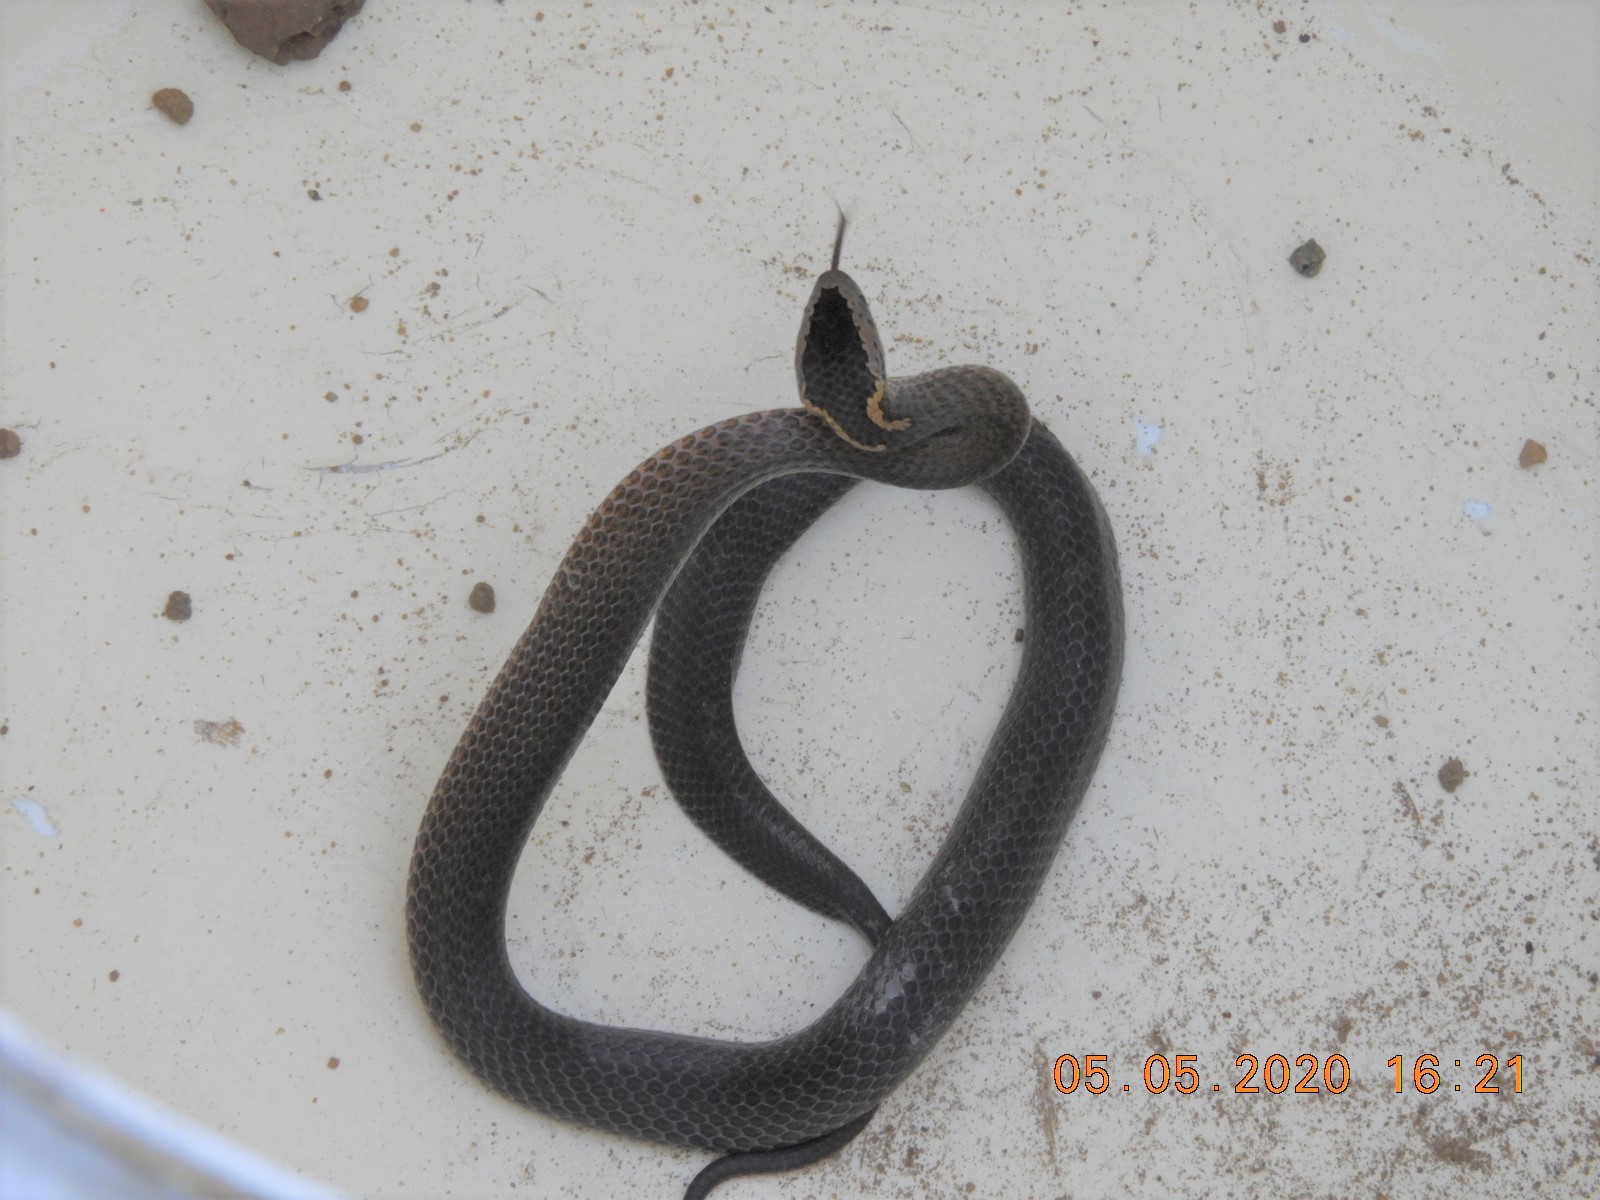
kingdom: Animalia
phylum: Chordata
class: Squamata
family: Elapidae
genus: Cacophis
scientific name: Cacophis squamulosus
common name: Golden crowned snake
